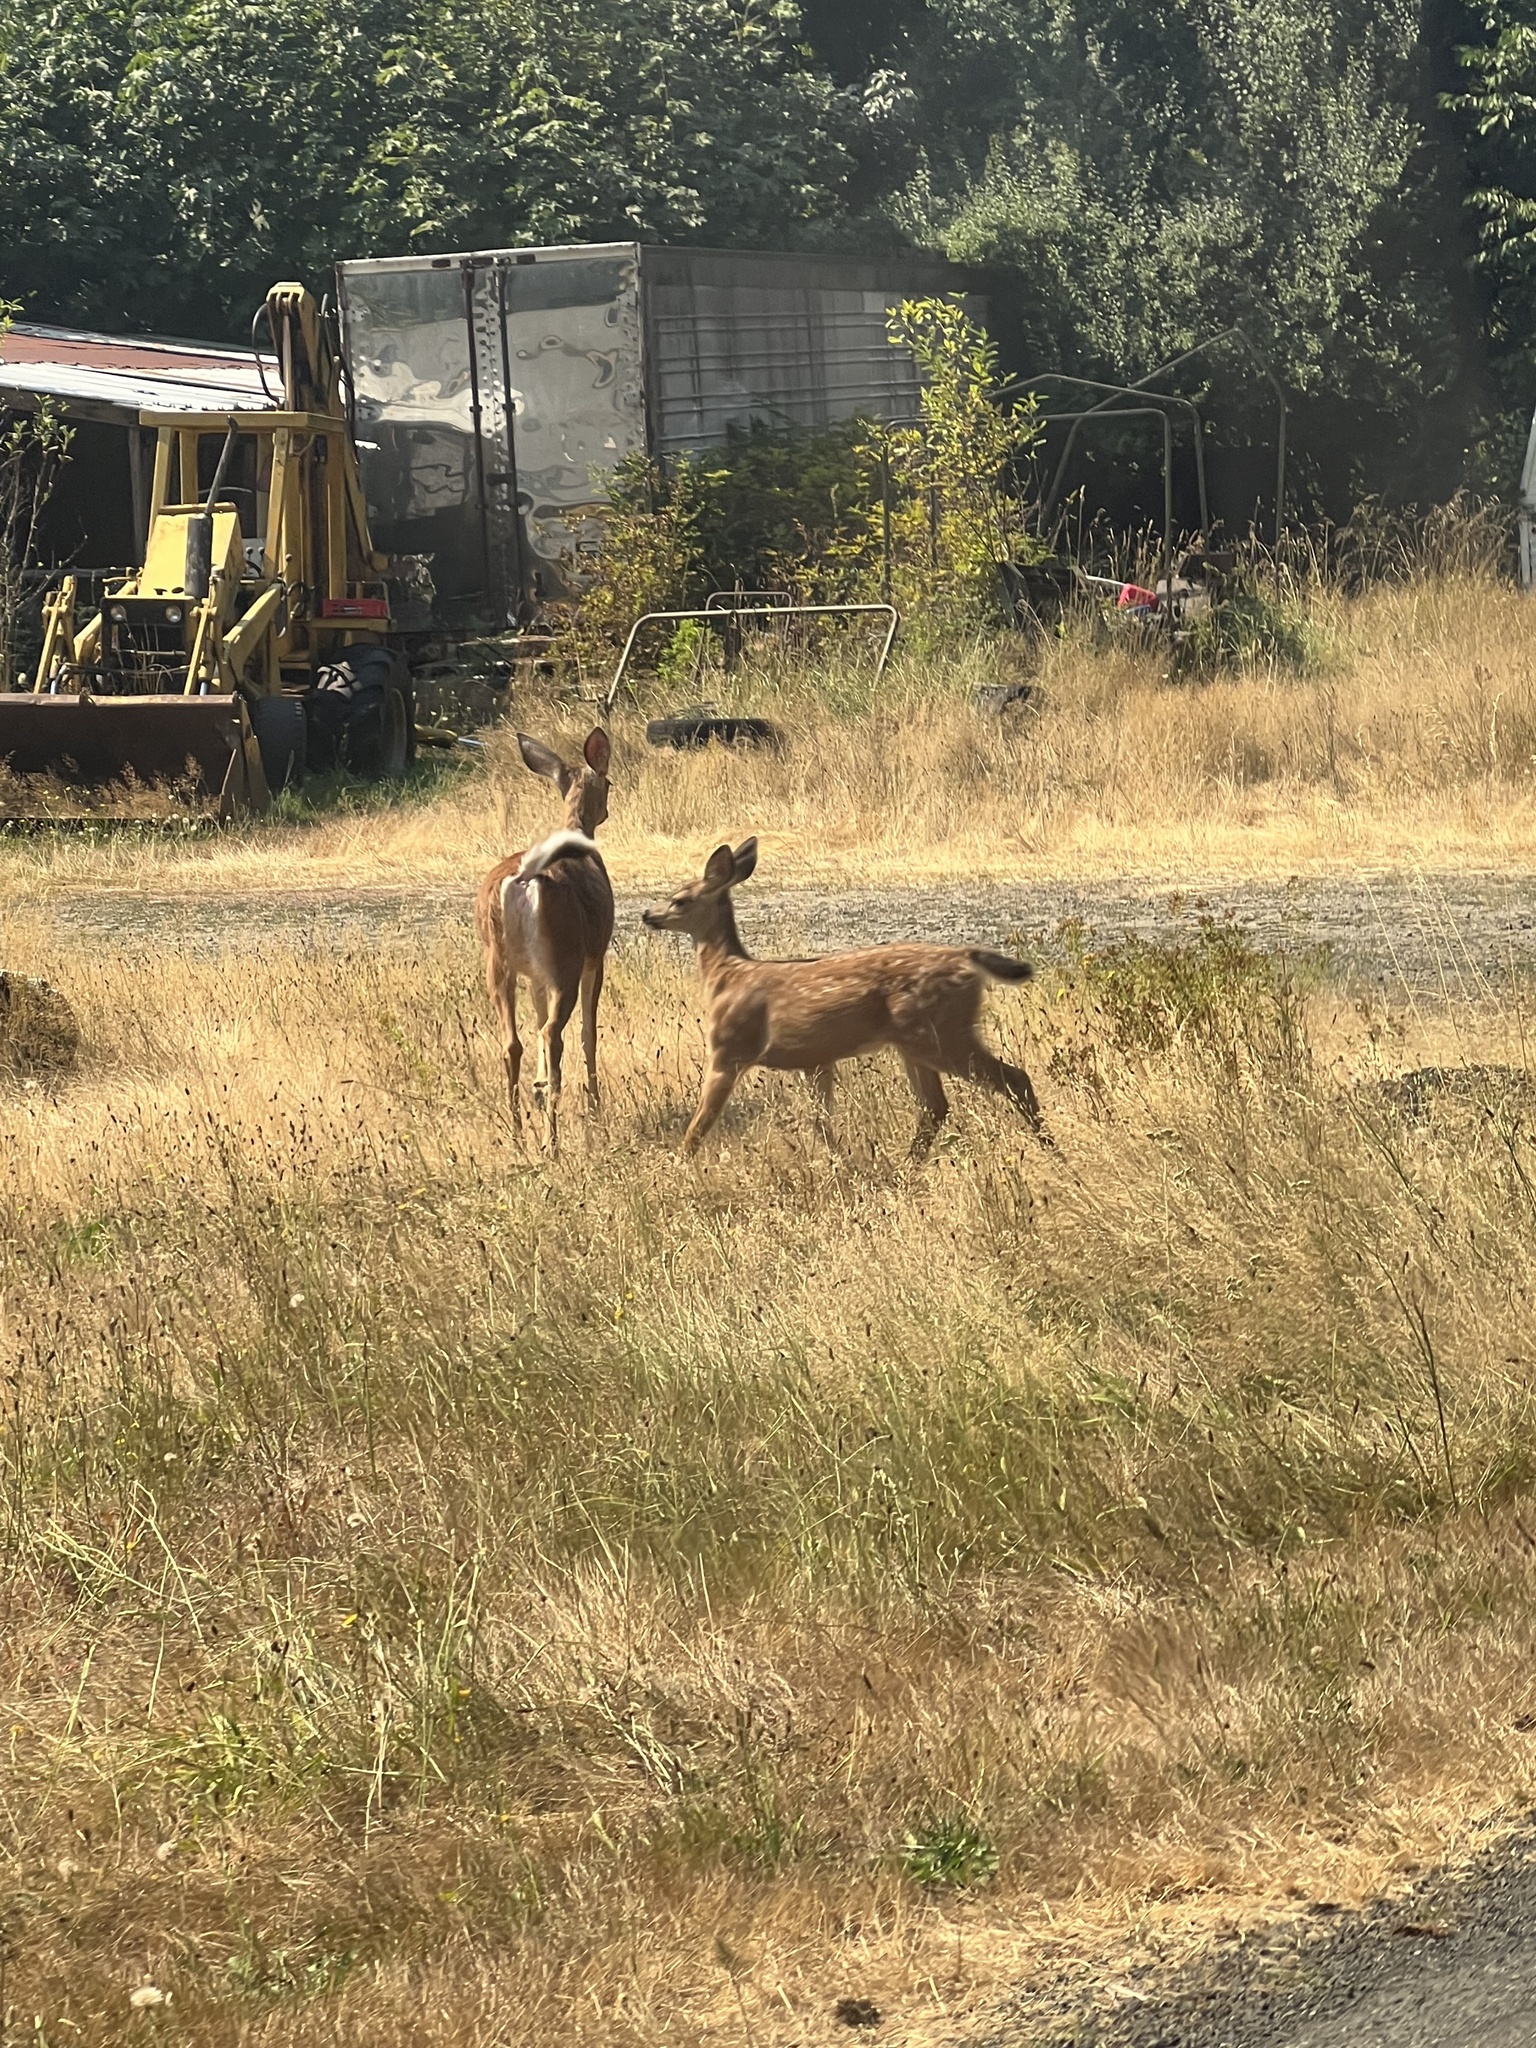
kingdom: Animalia
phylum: Chordata
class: Mammalia
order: Artiodactyla
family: Cervidae
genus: Odocoileus
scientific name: Odocoileus hemionus
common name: Mule deer
